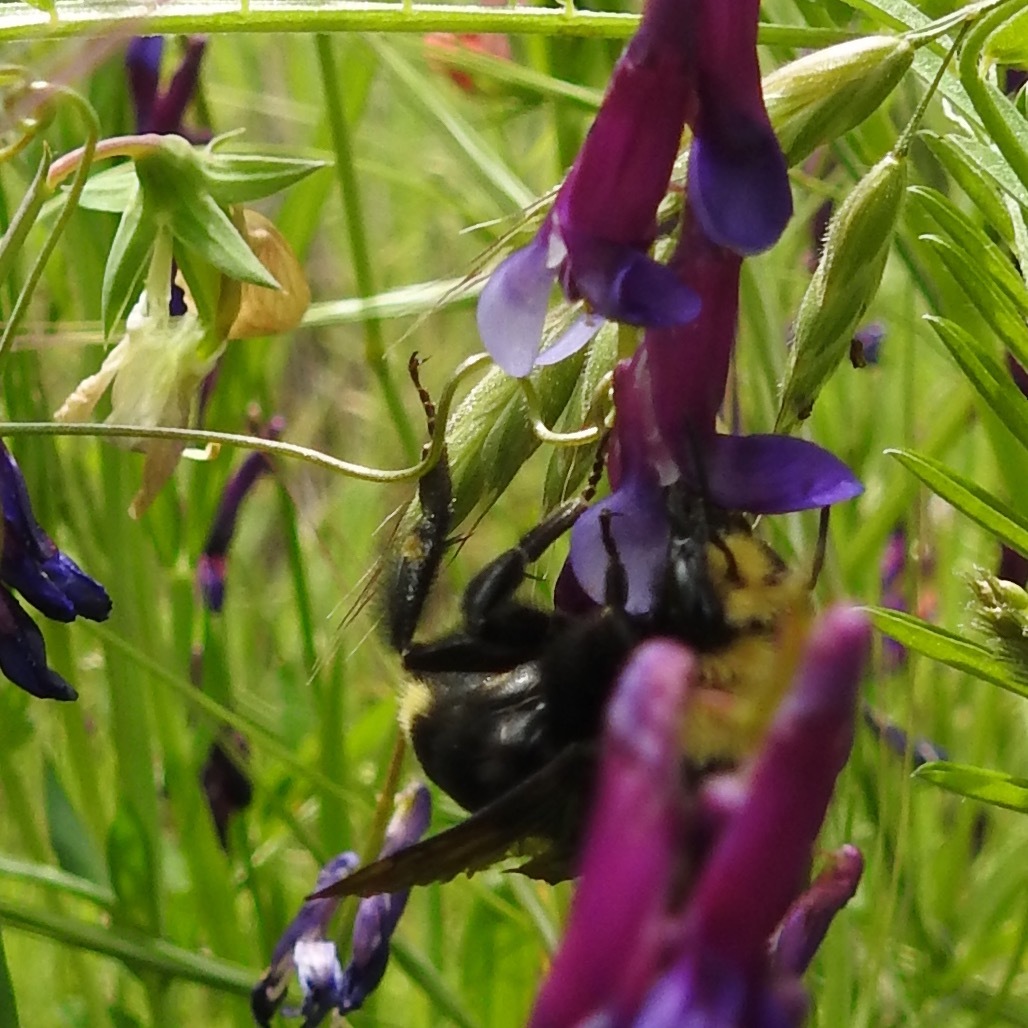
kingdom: Animalia
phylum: Arthropoda
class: Insecta
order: Hymenoptera
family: Apidae
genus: Pyrobombus
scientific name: Pyrobombus
